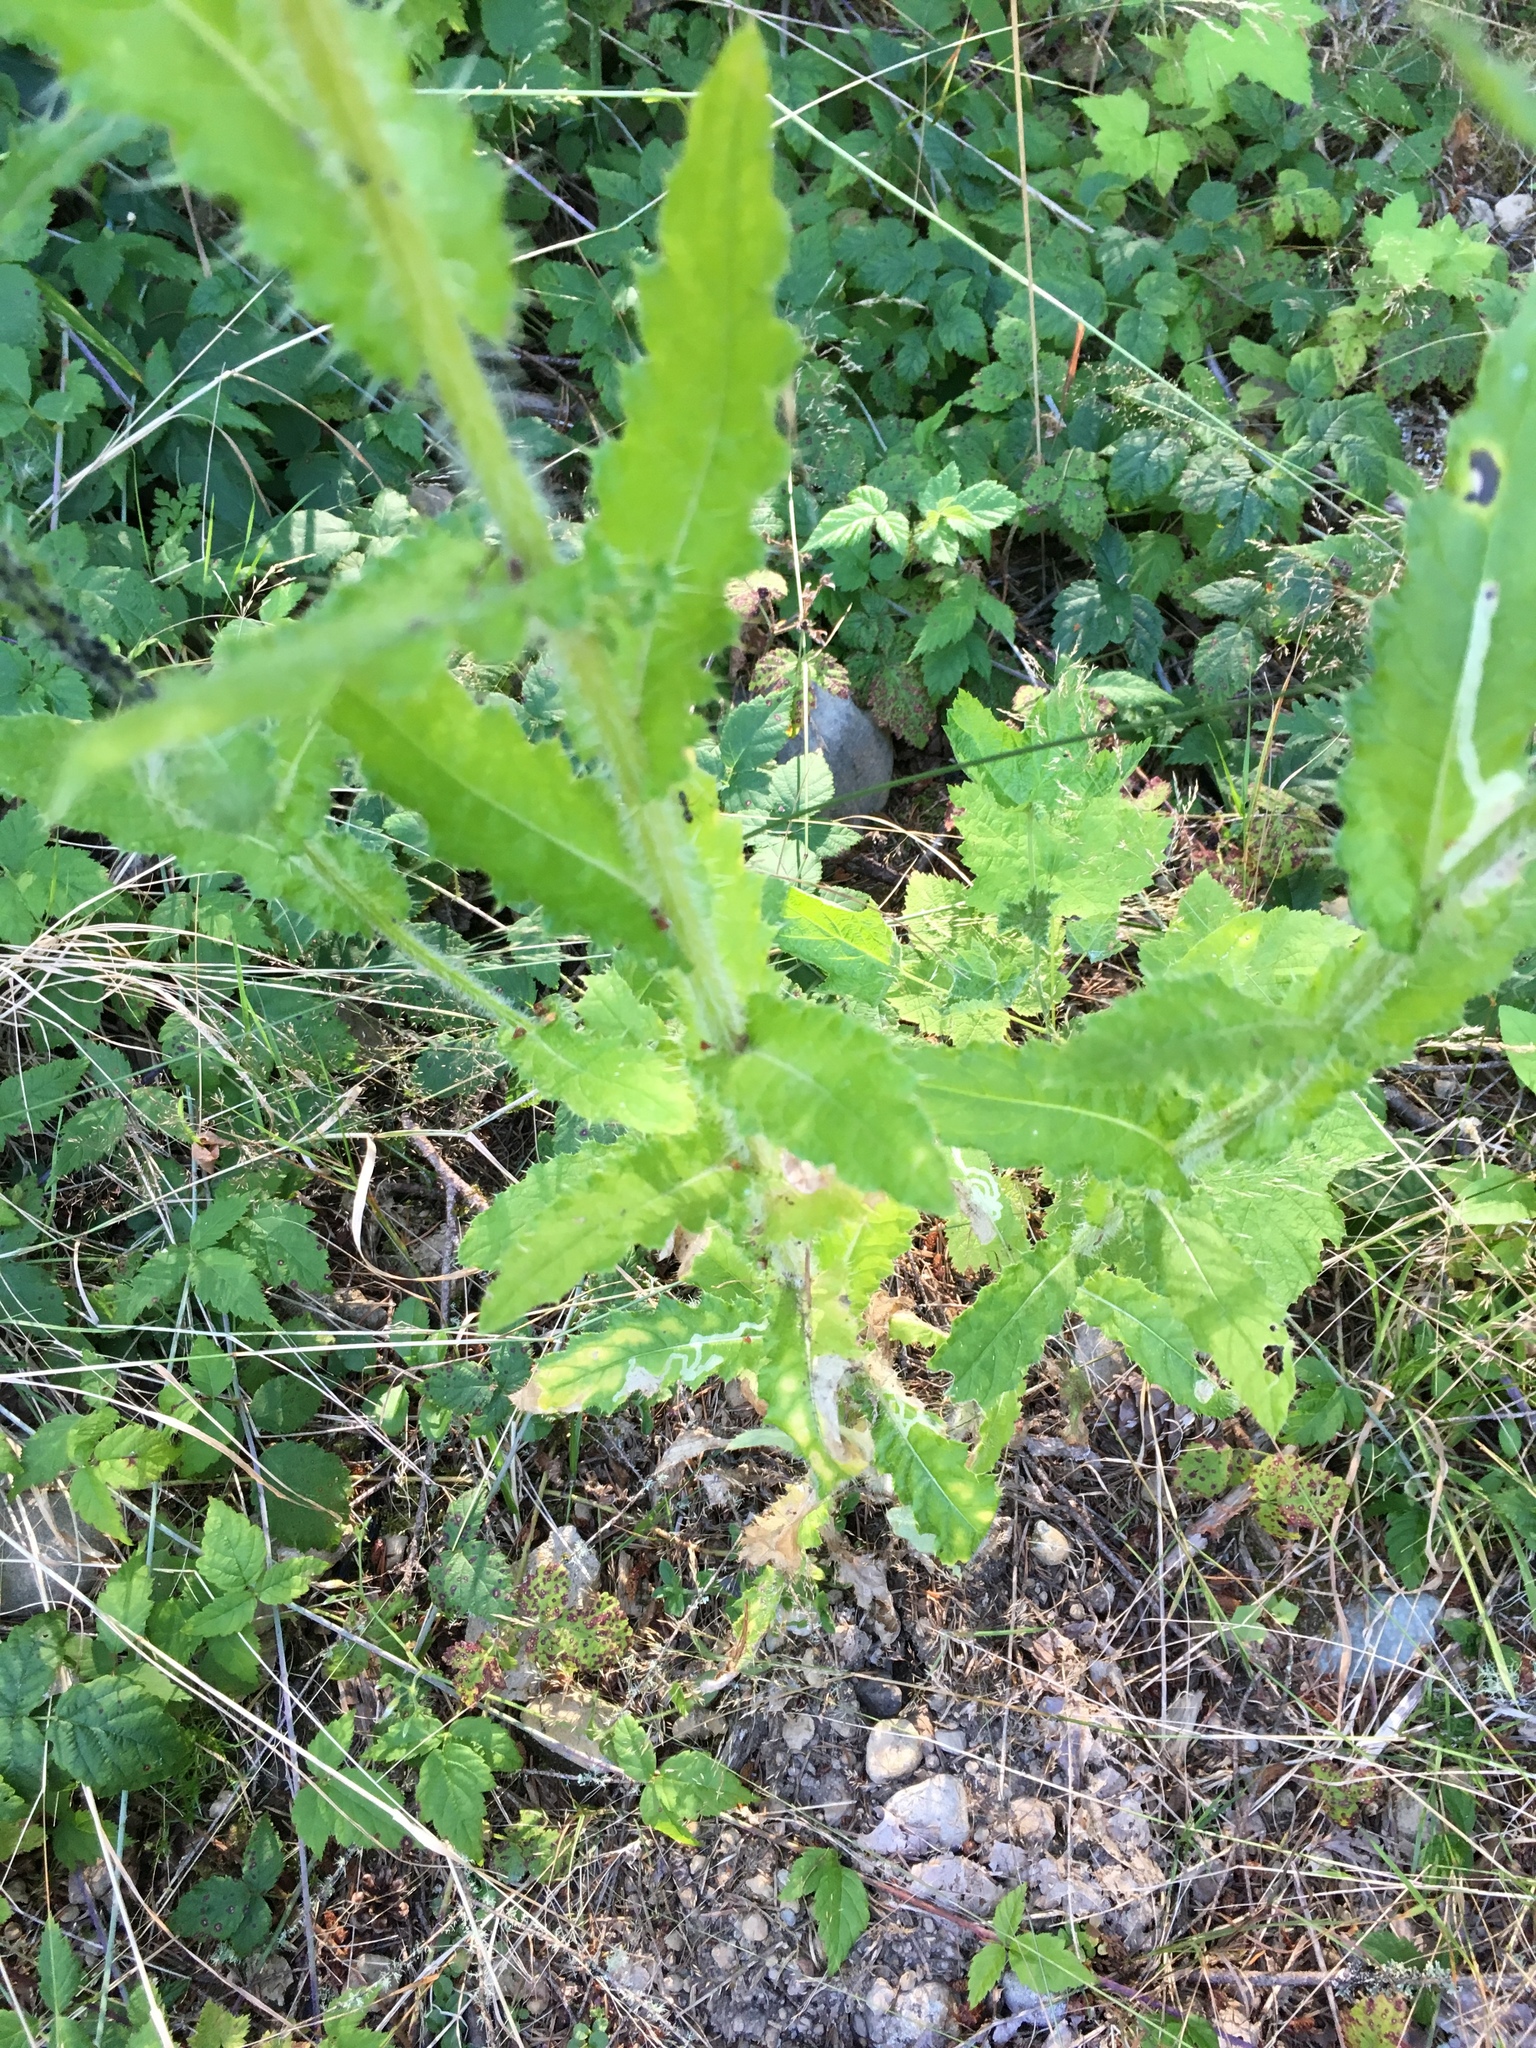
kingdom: Plantae
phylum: Tracheophyta
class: Magnoliopsida
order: Asterales
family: Asteraceae
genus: Cirsium
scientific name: Cirsium brevistylum
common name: Indian thistle
